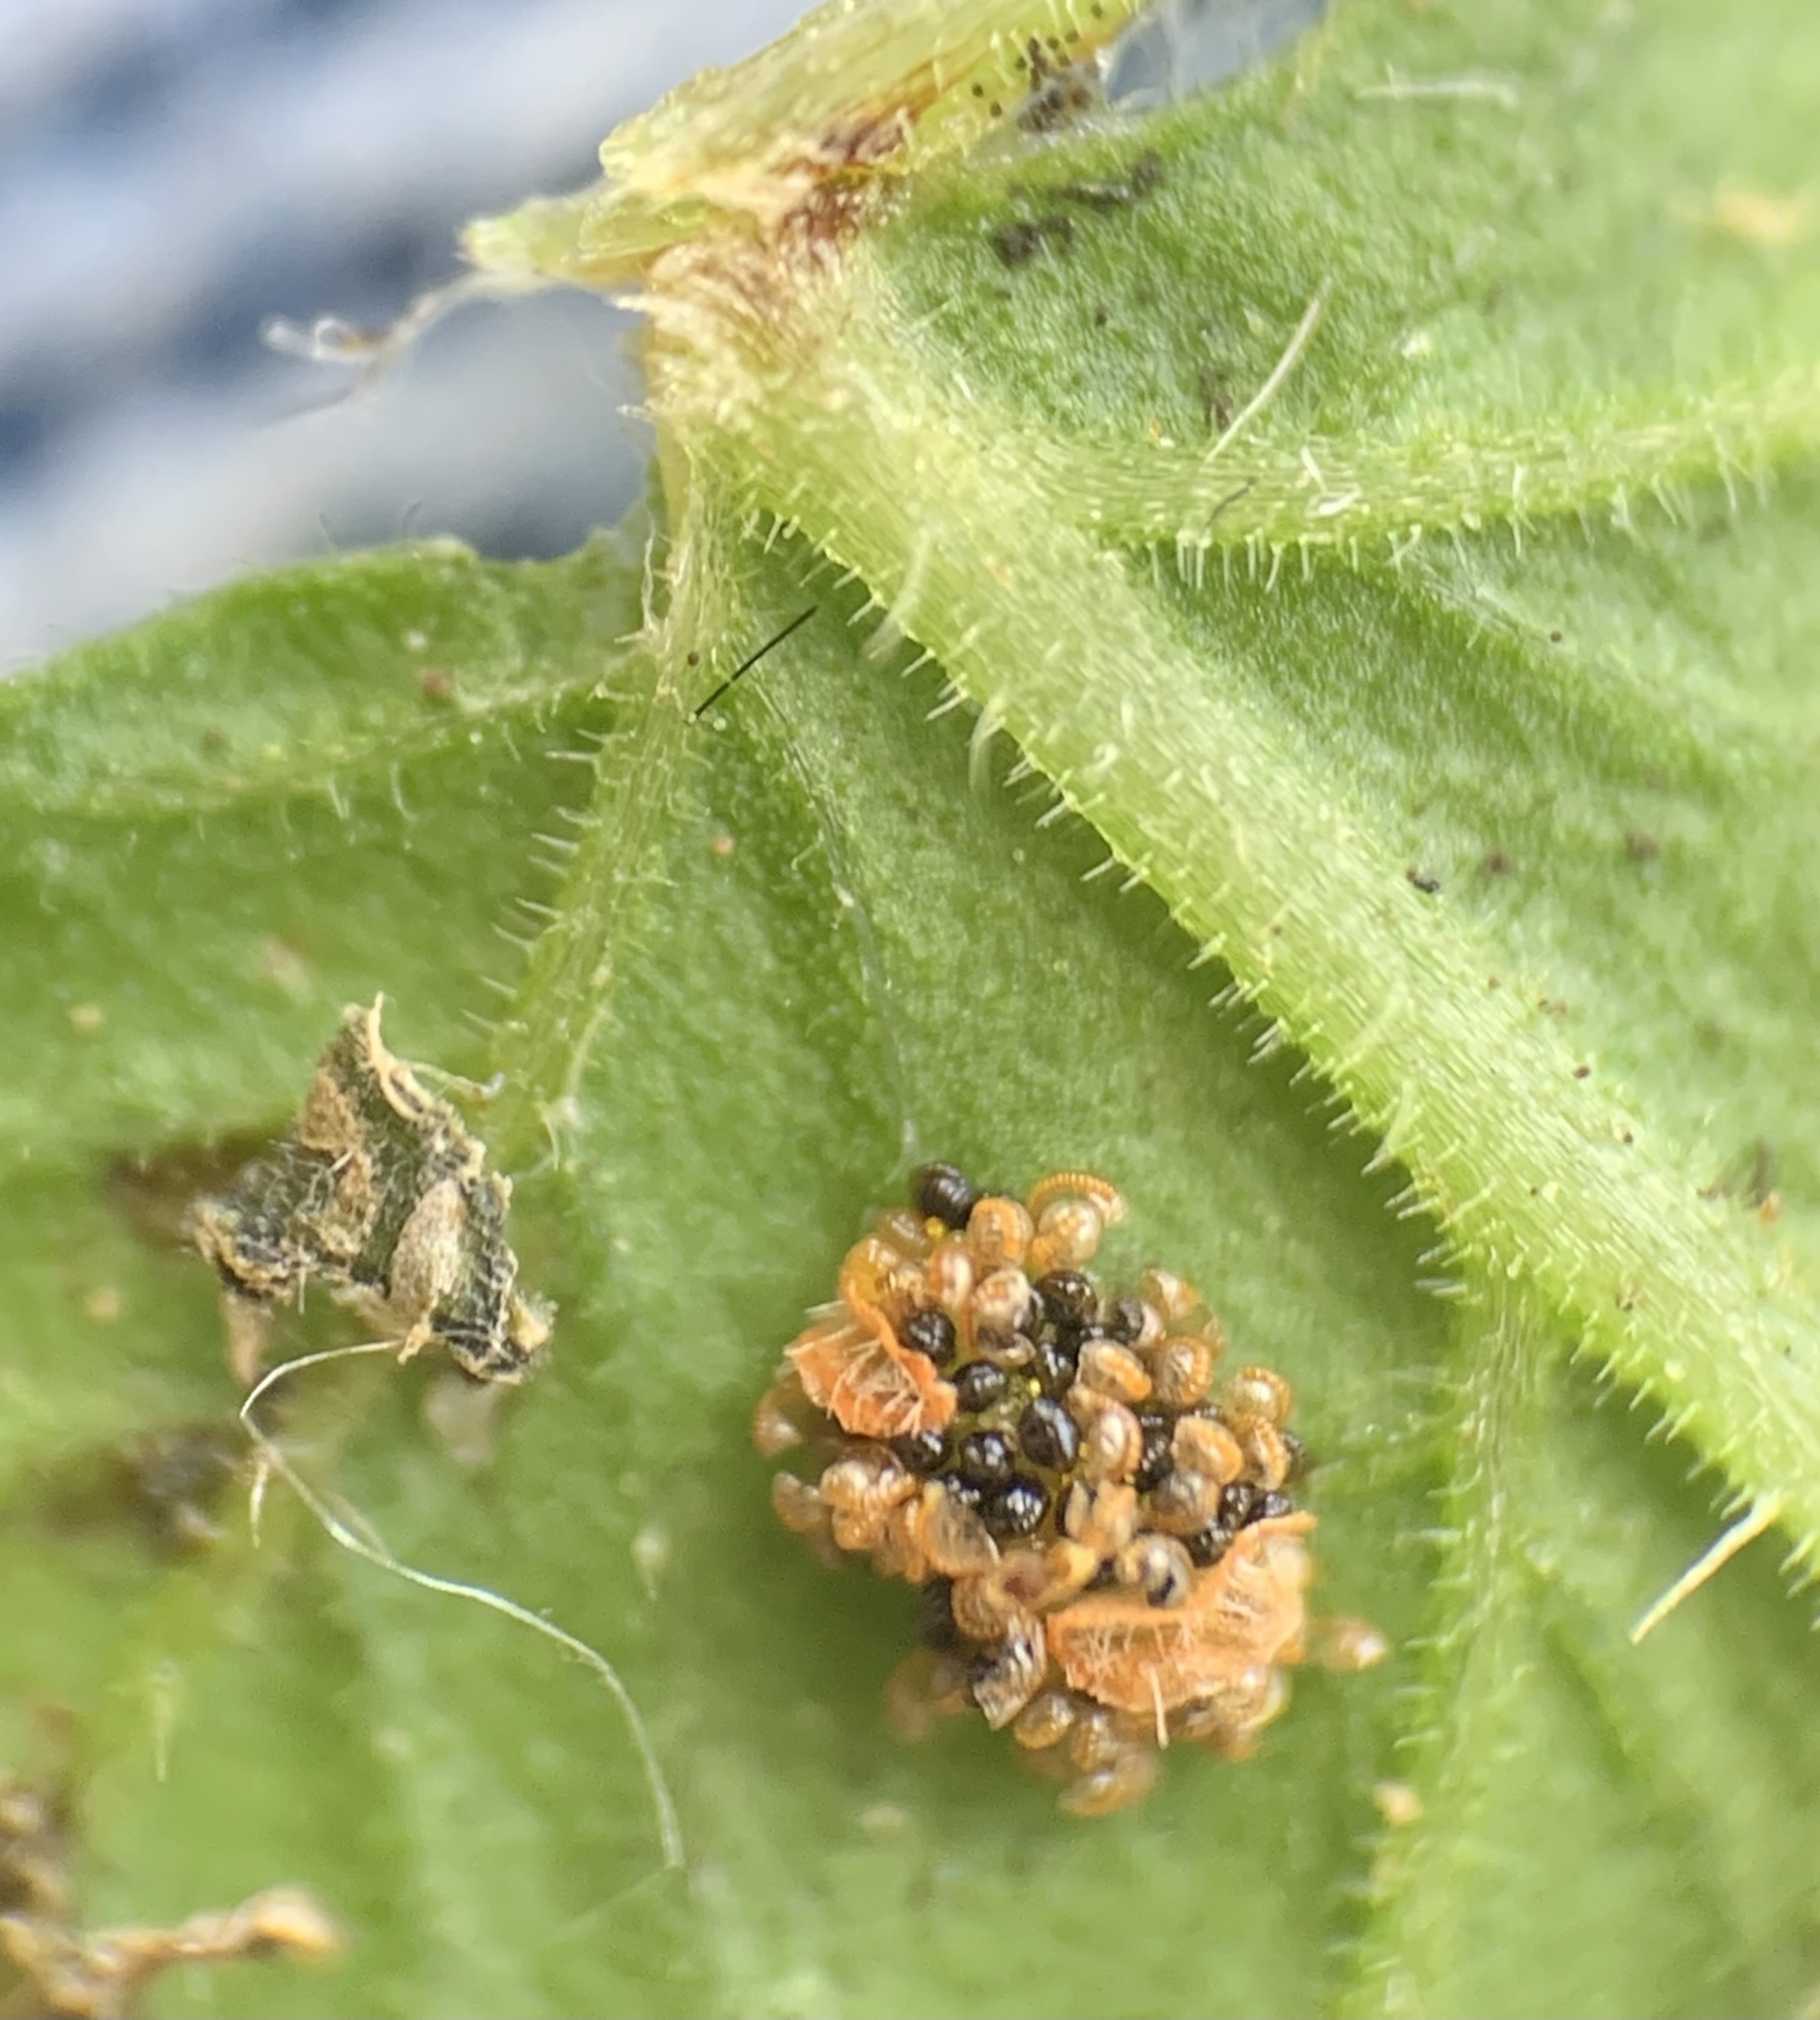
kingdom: Plantae
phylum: Tracheophyta
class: Polypodiopsida
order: Polypodiales
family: Thelypteridaceae
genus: Christella
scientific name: Christella dentata
